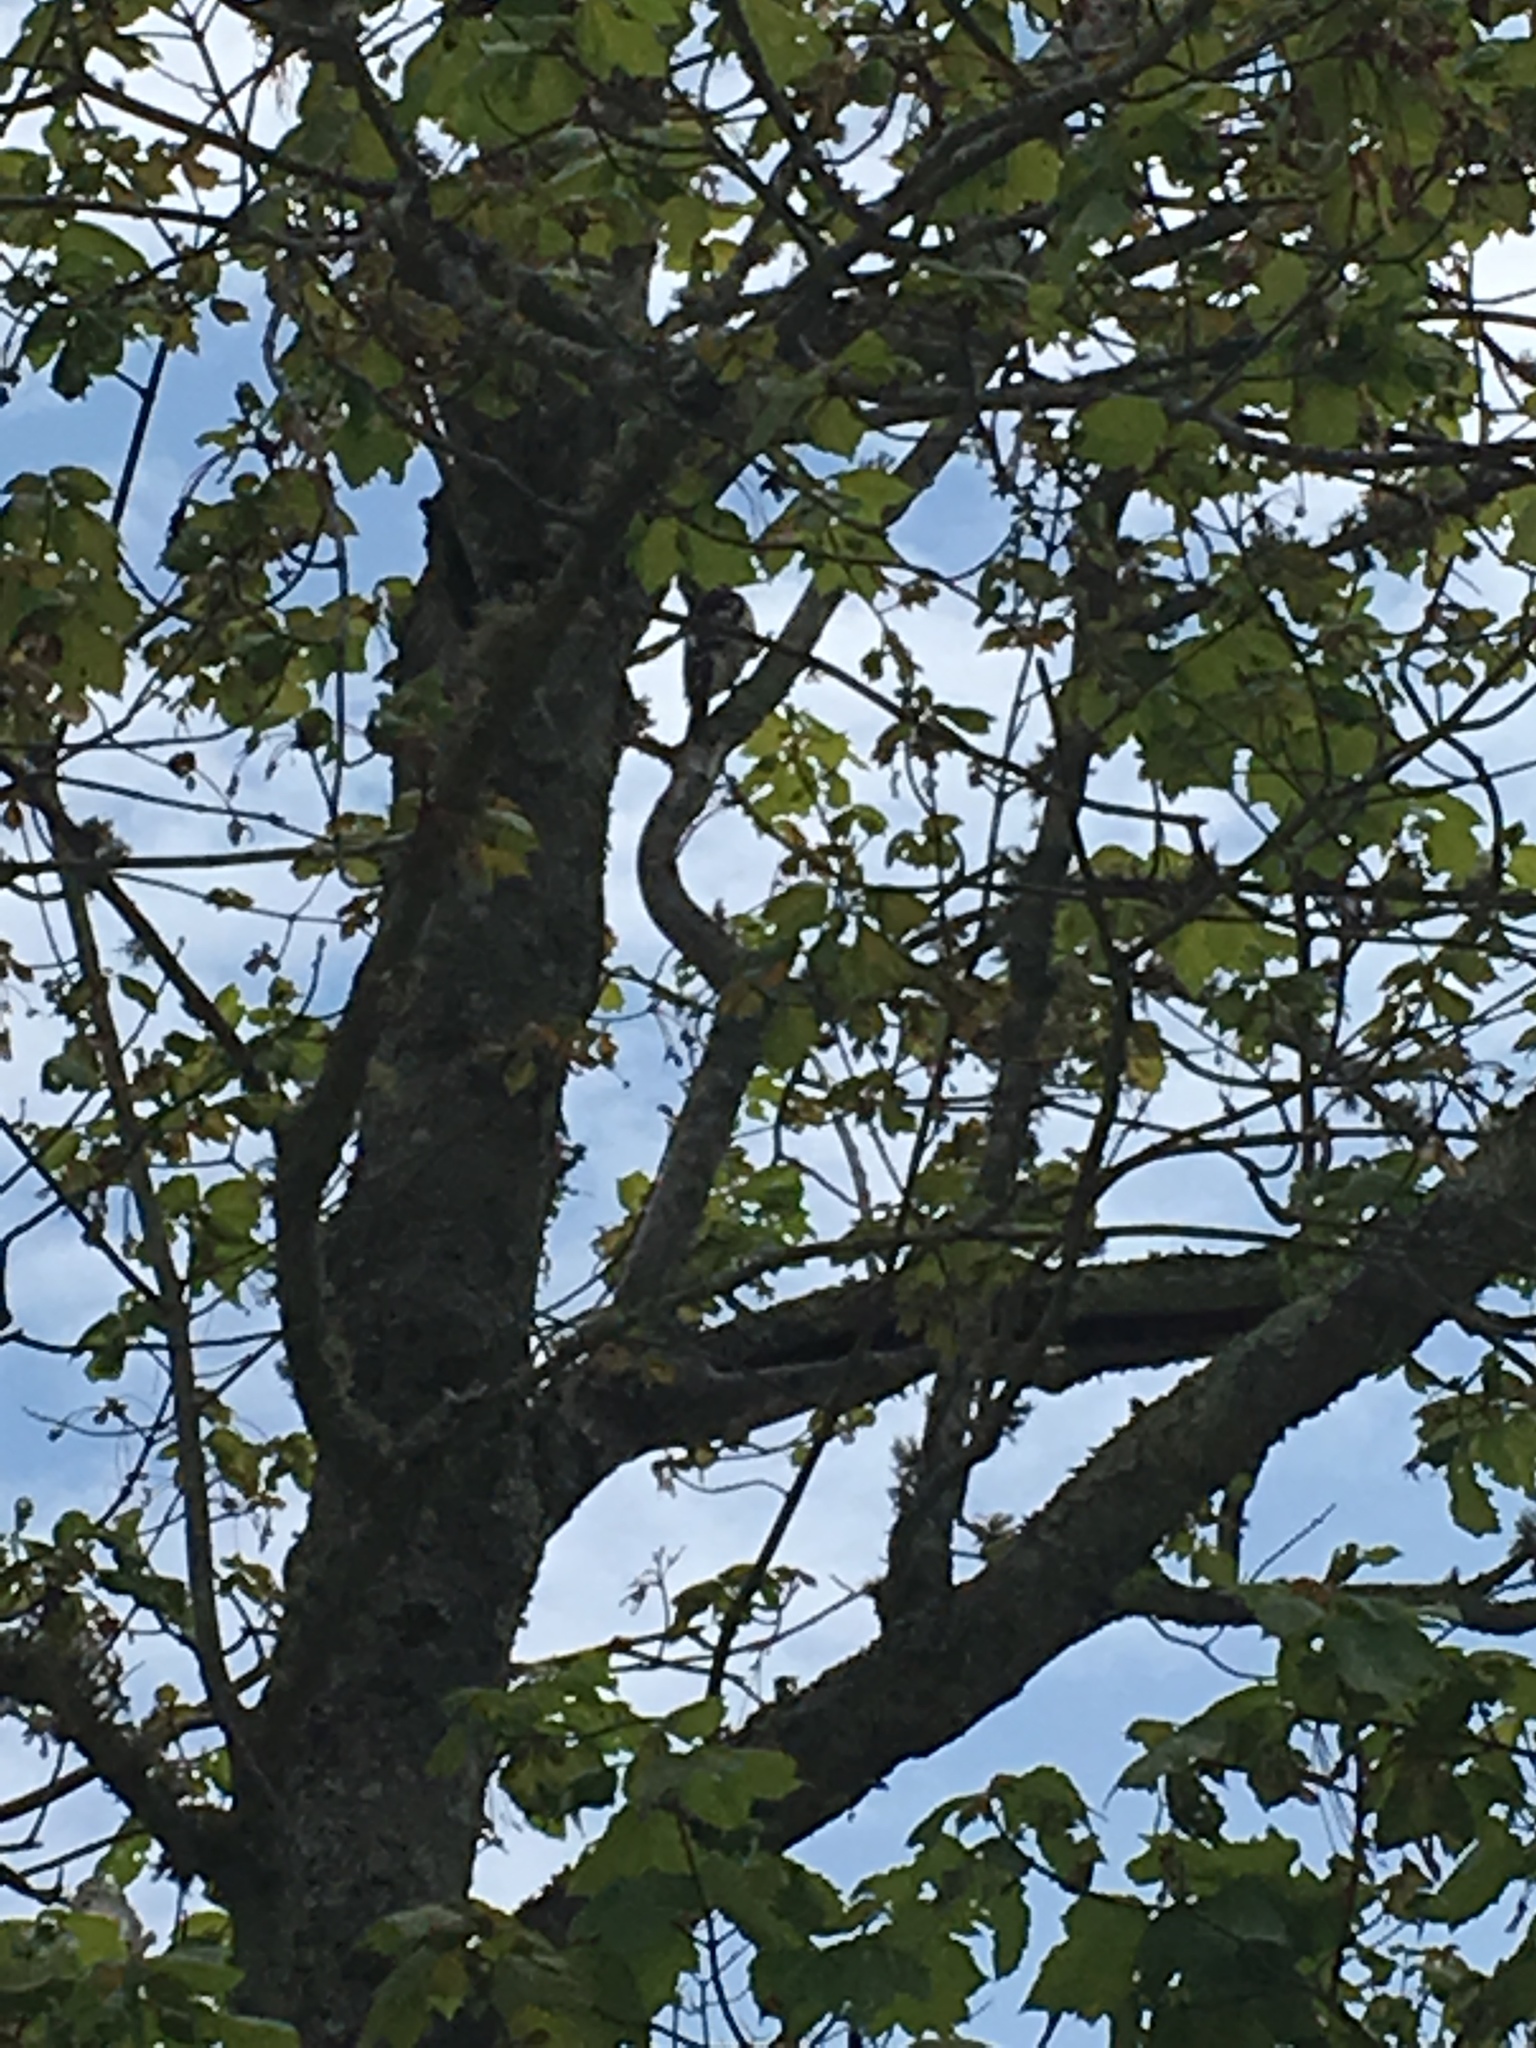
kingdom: Animalia
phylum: Chordata
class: Aves
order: Piciformes
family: Picidae
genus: Leuconotopicus
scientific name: Leuconotopicus villosus
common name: Hairy woodpecker
